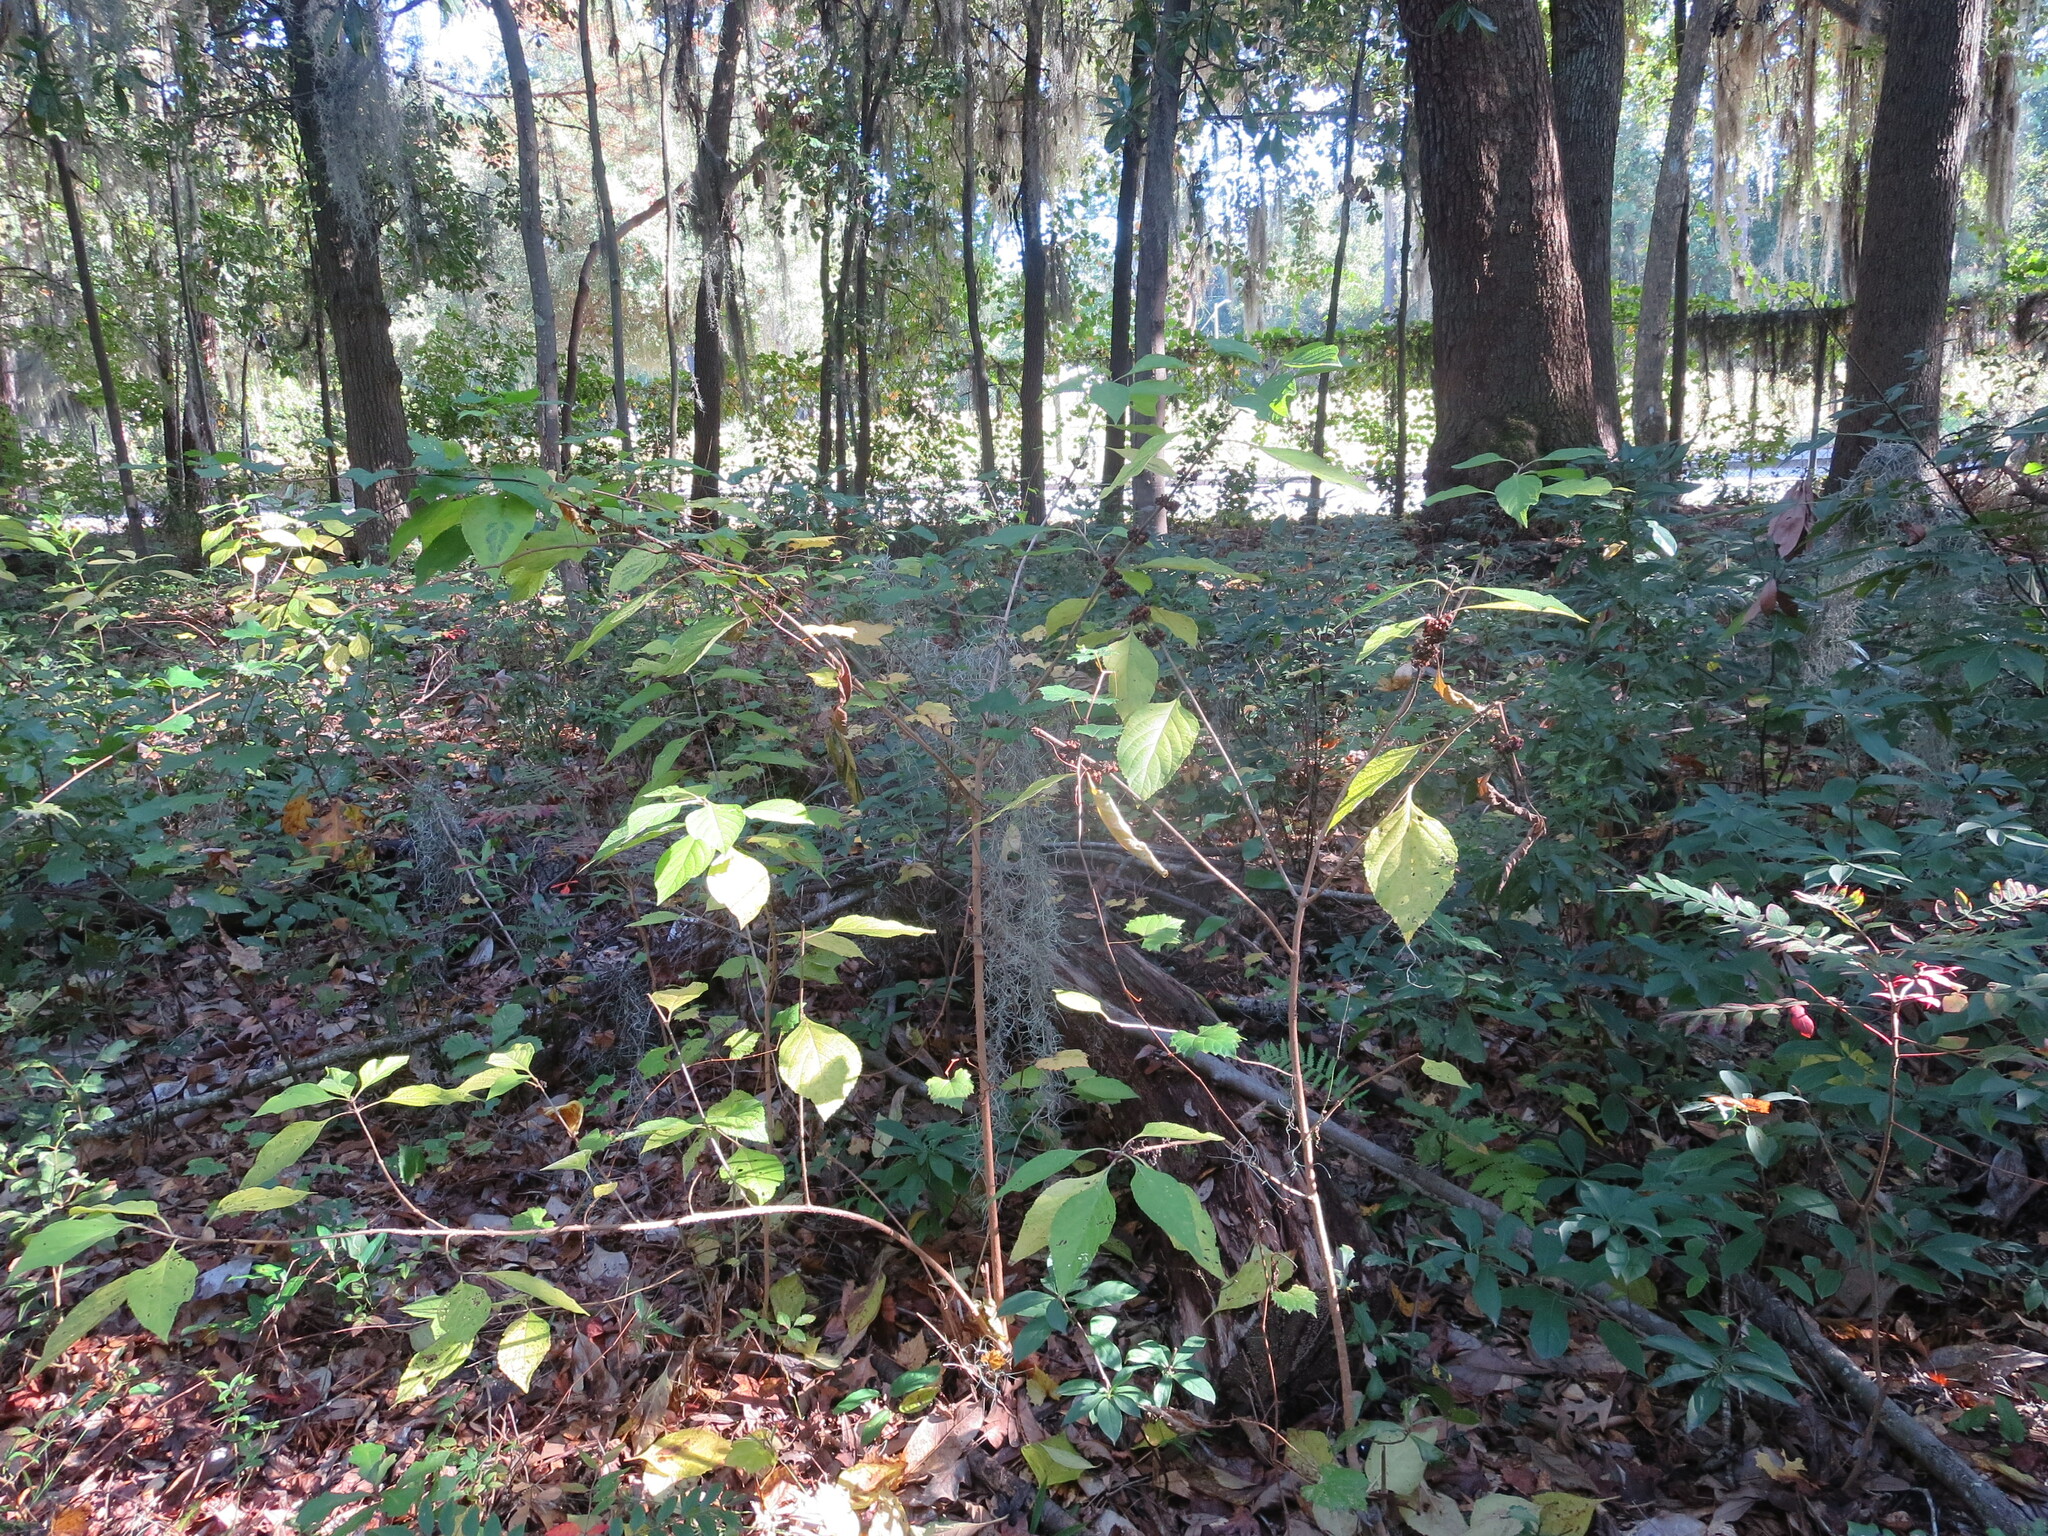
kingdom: Plantae
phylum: Tracheophyta
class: Magnoliopsida
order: Lamiales
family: Lamiaceae
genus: Callicarpa
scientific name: Callicarpa americana
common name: American beautyberry
